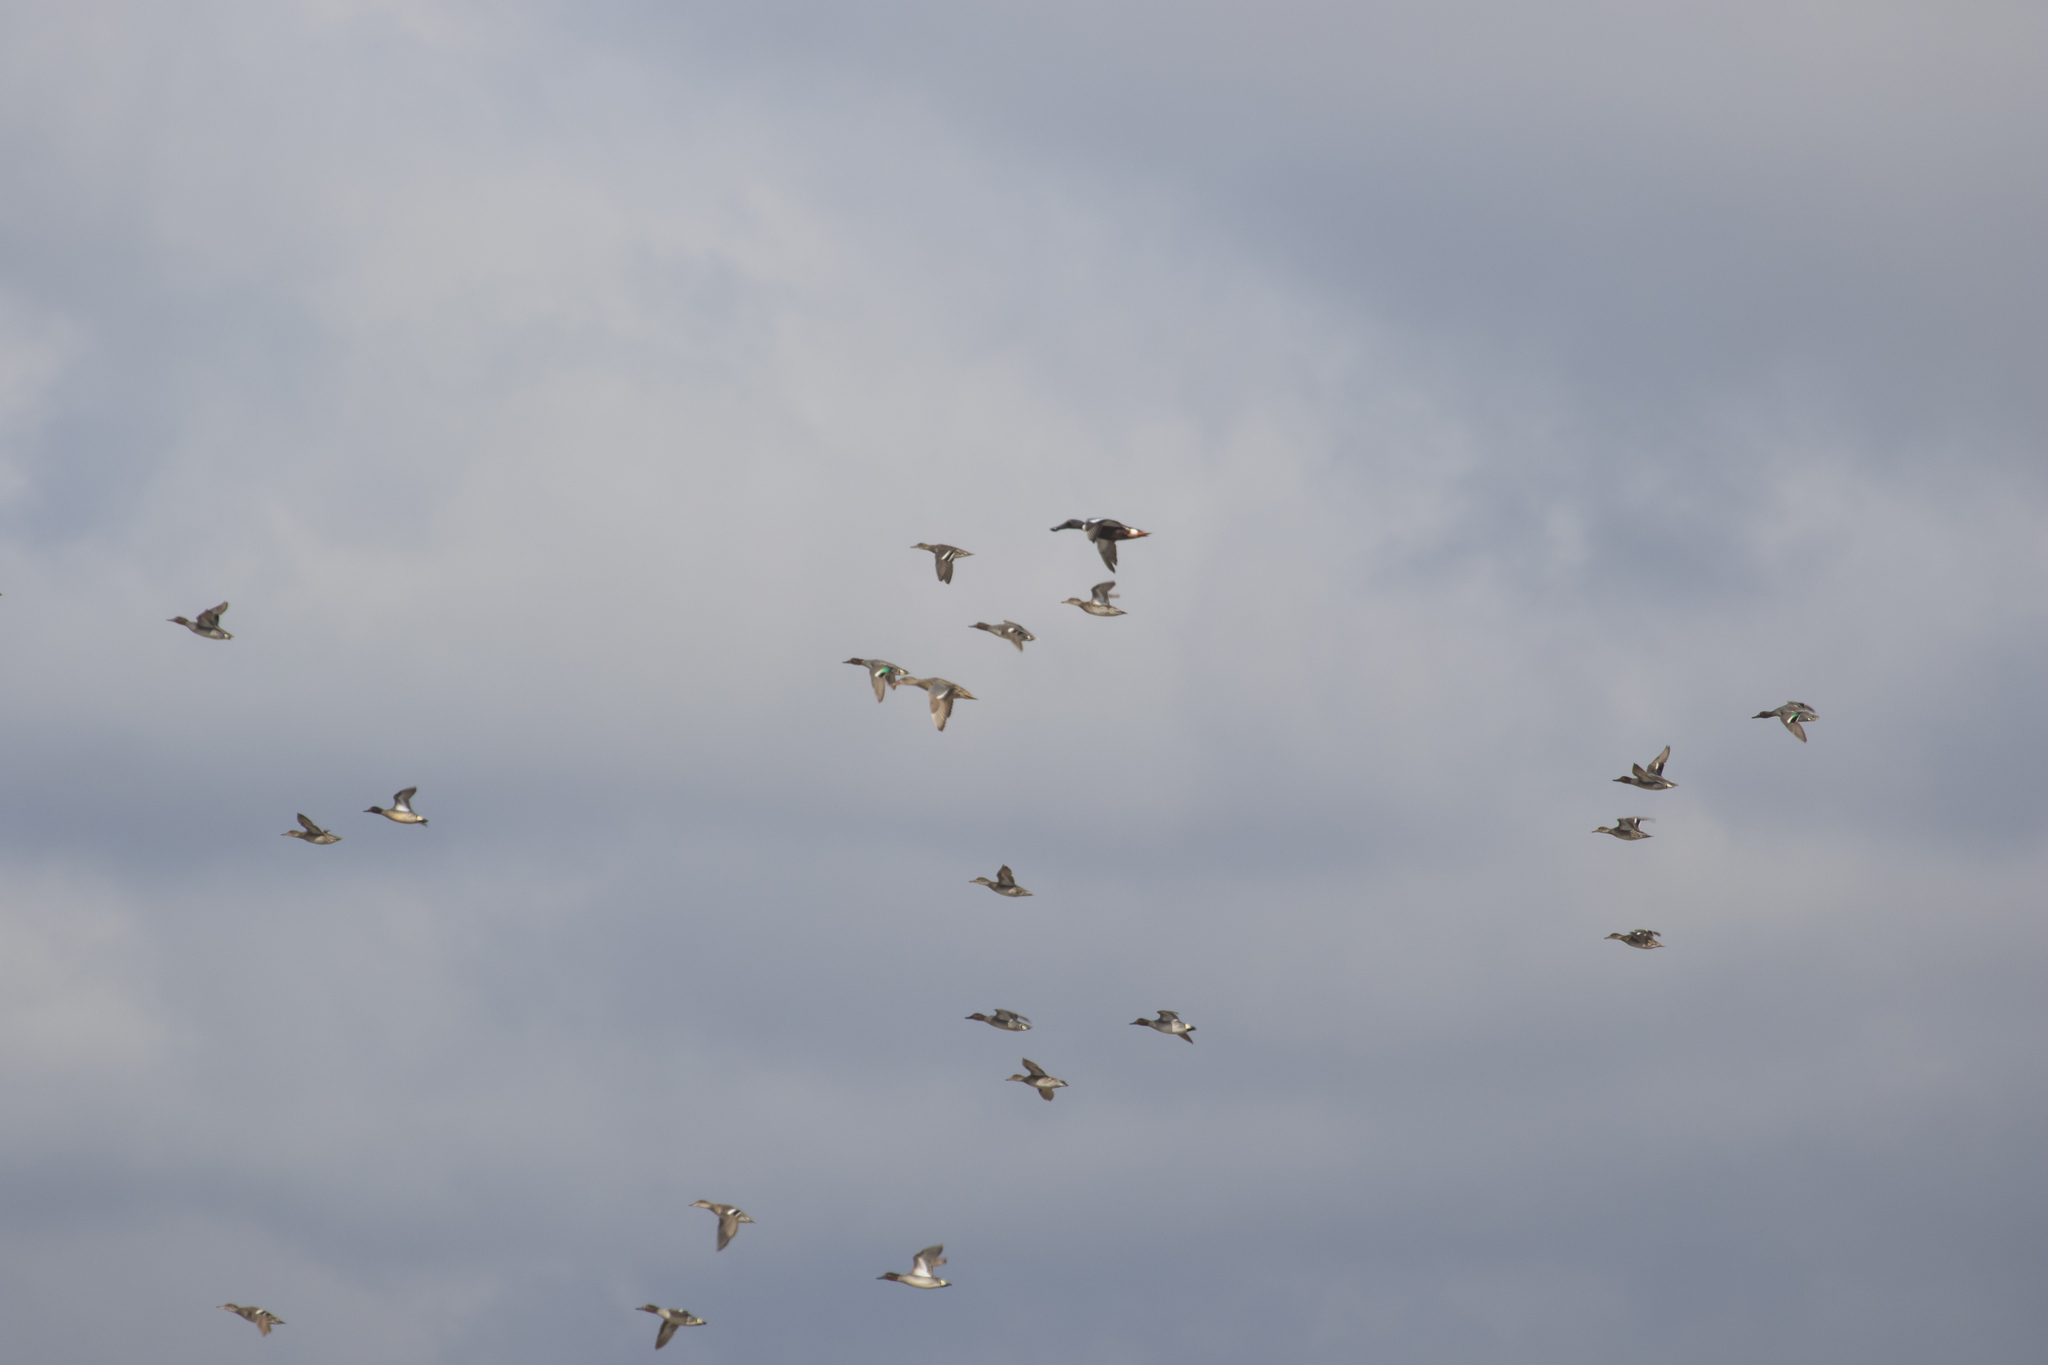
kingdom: Animalia
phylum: Chordata
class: Aves
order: Anseriformes
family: Anatidae
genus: Anas
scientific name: Anas crecca
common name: Eurasian teal
